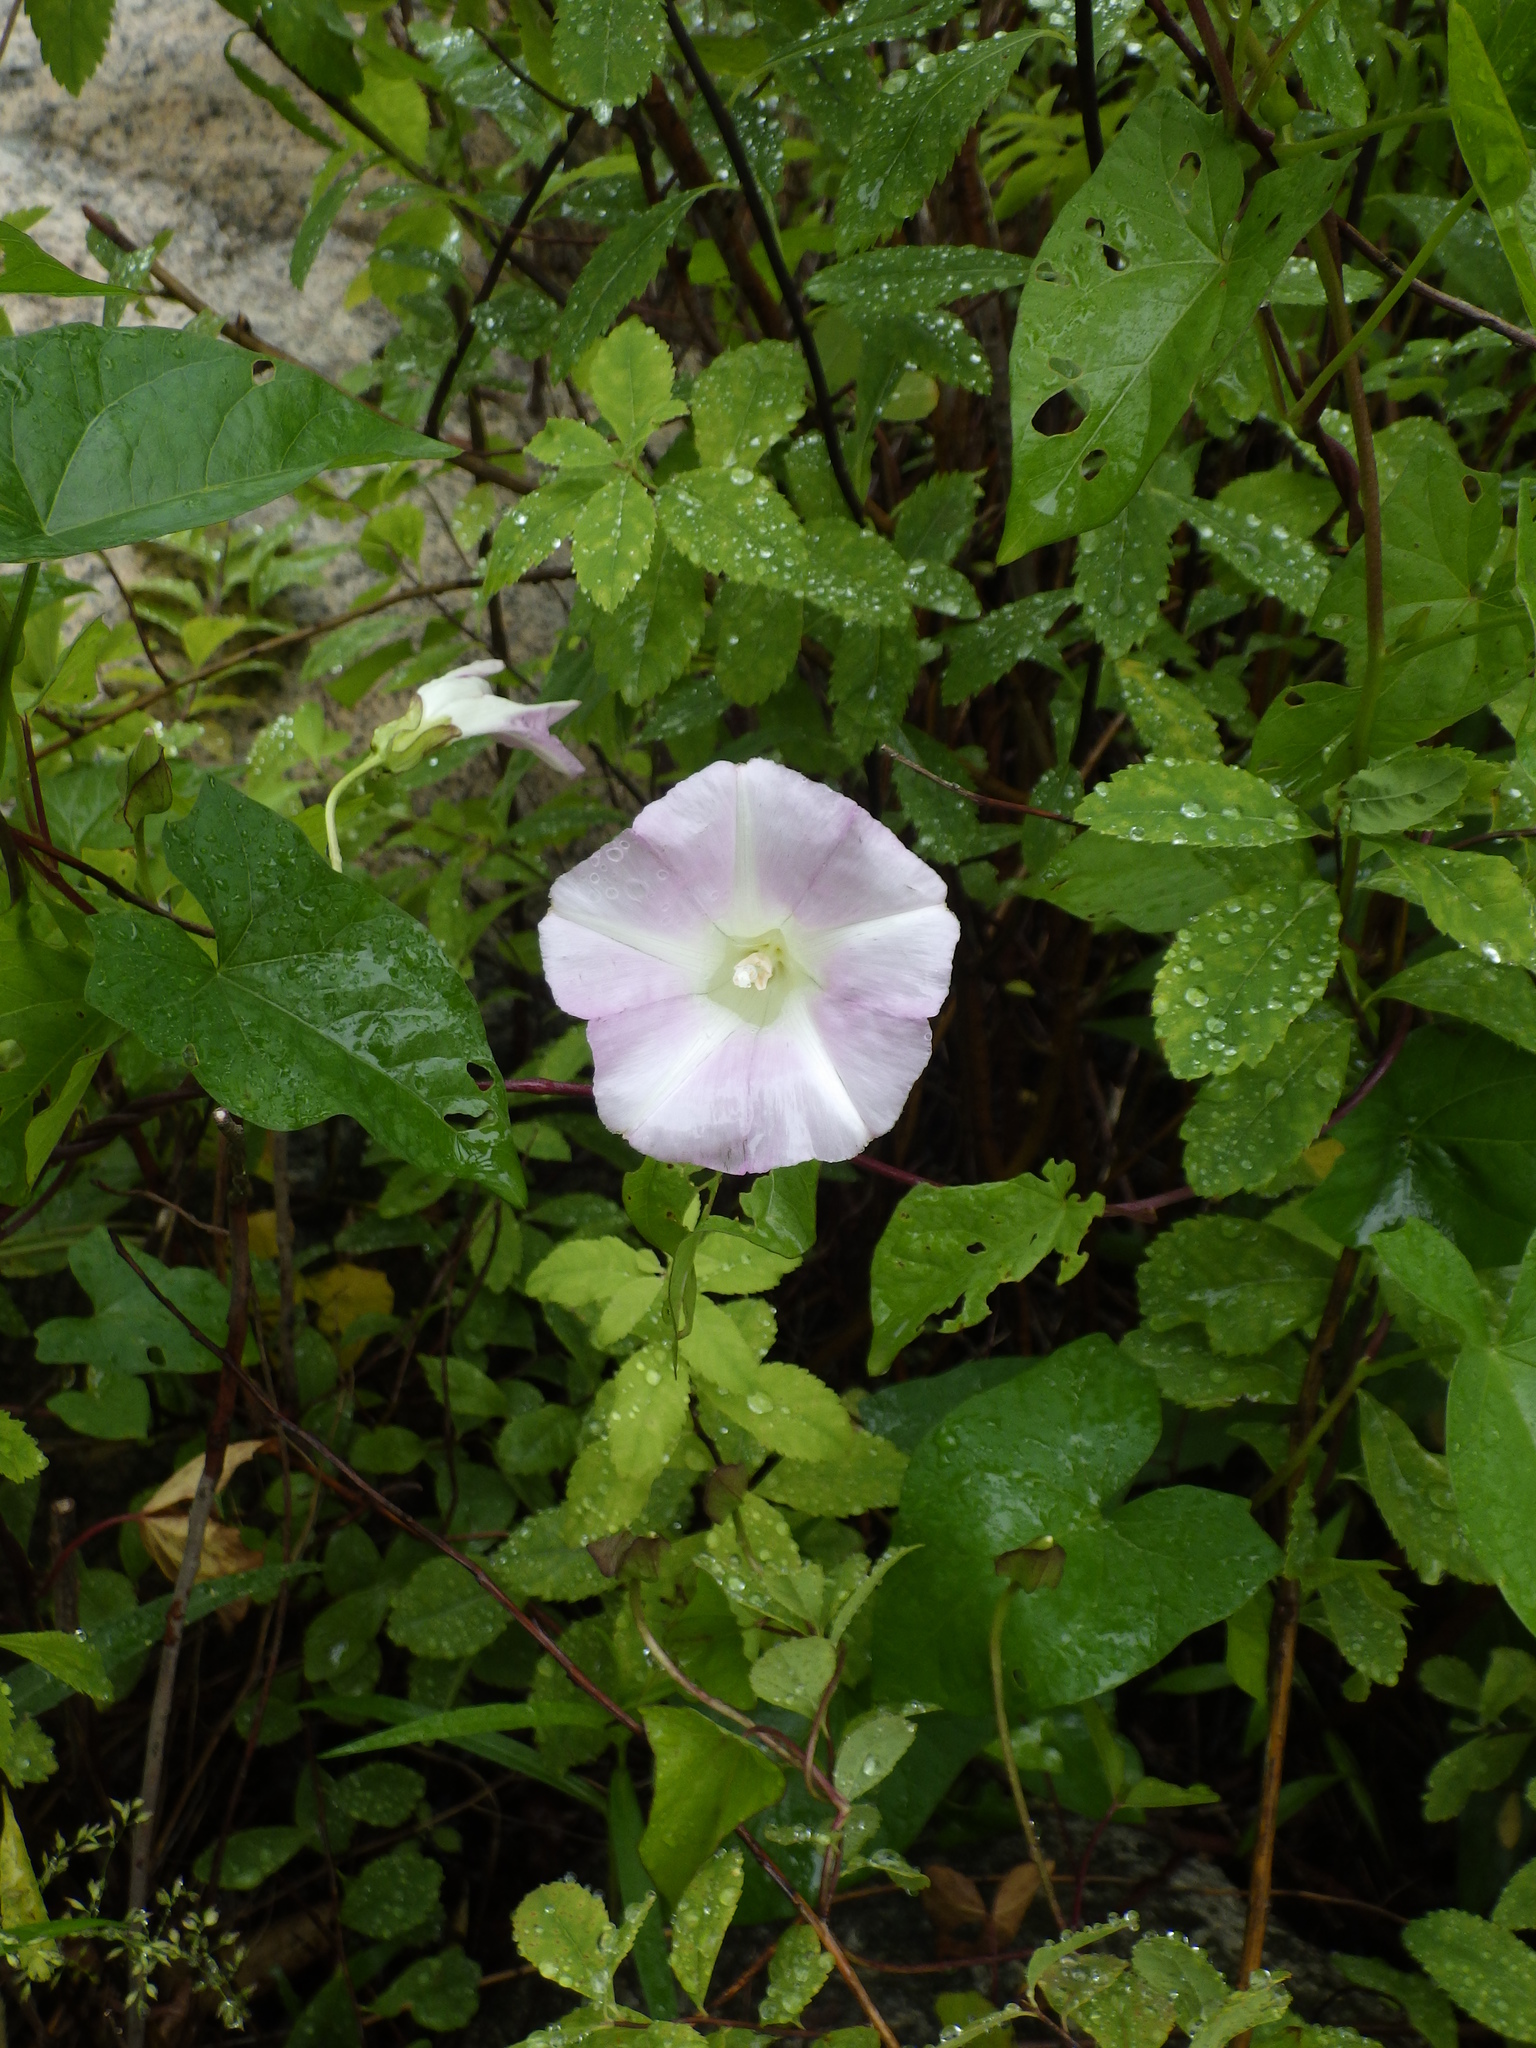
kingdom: Plantae
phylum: Tracheophyta
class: Magnoliopsida
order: Solanales
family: Convolvulaceae
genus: Calystegia
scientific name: Calystegia sepium
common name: Hedge bindweed
